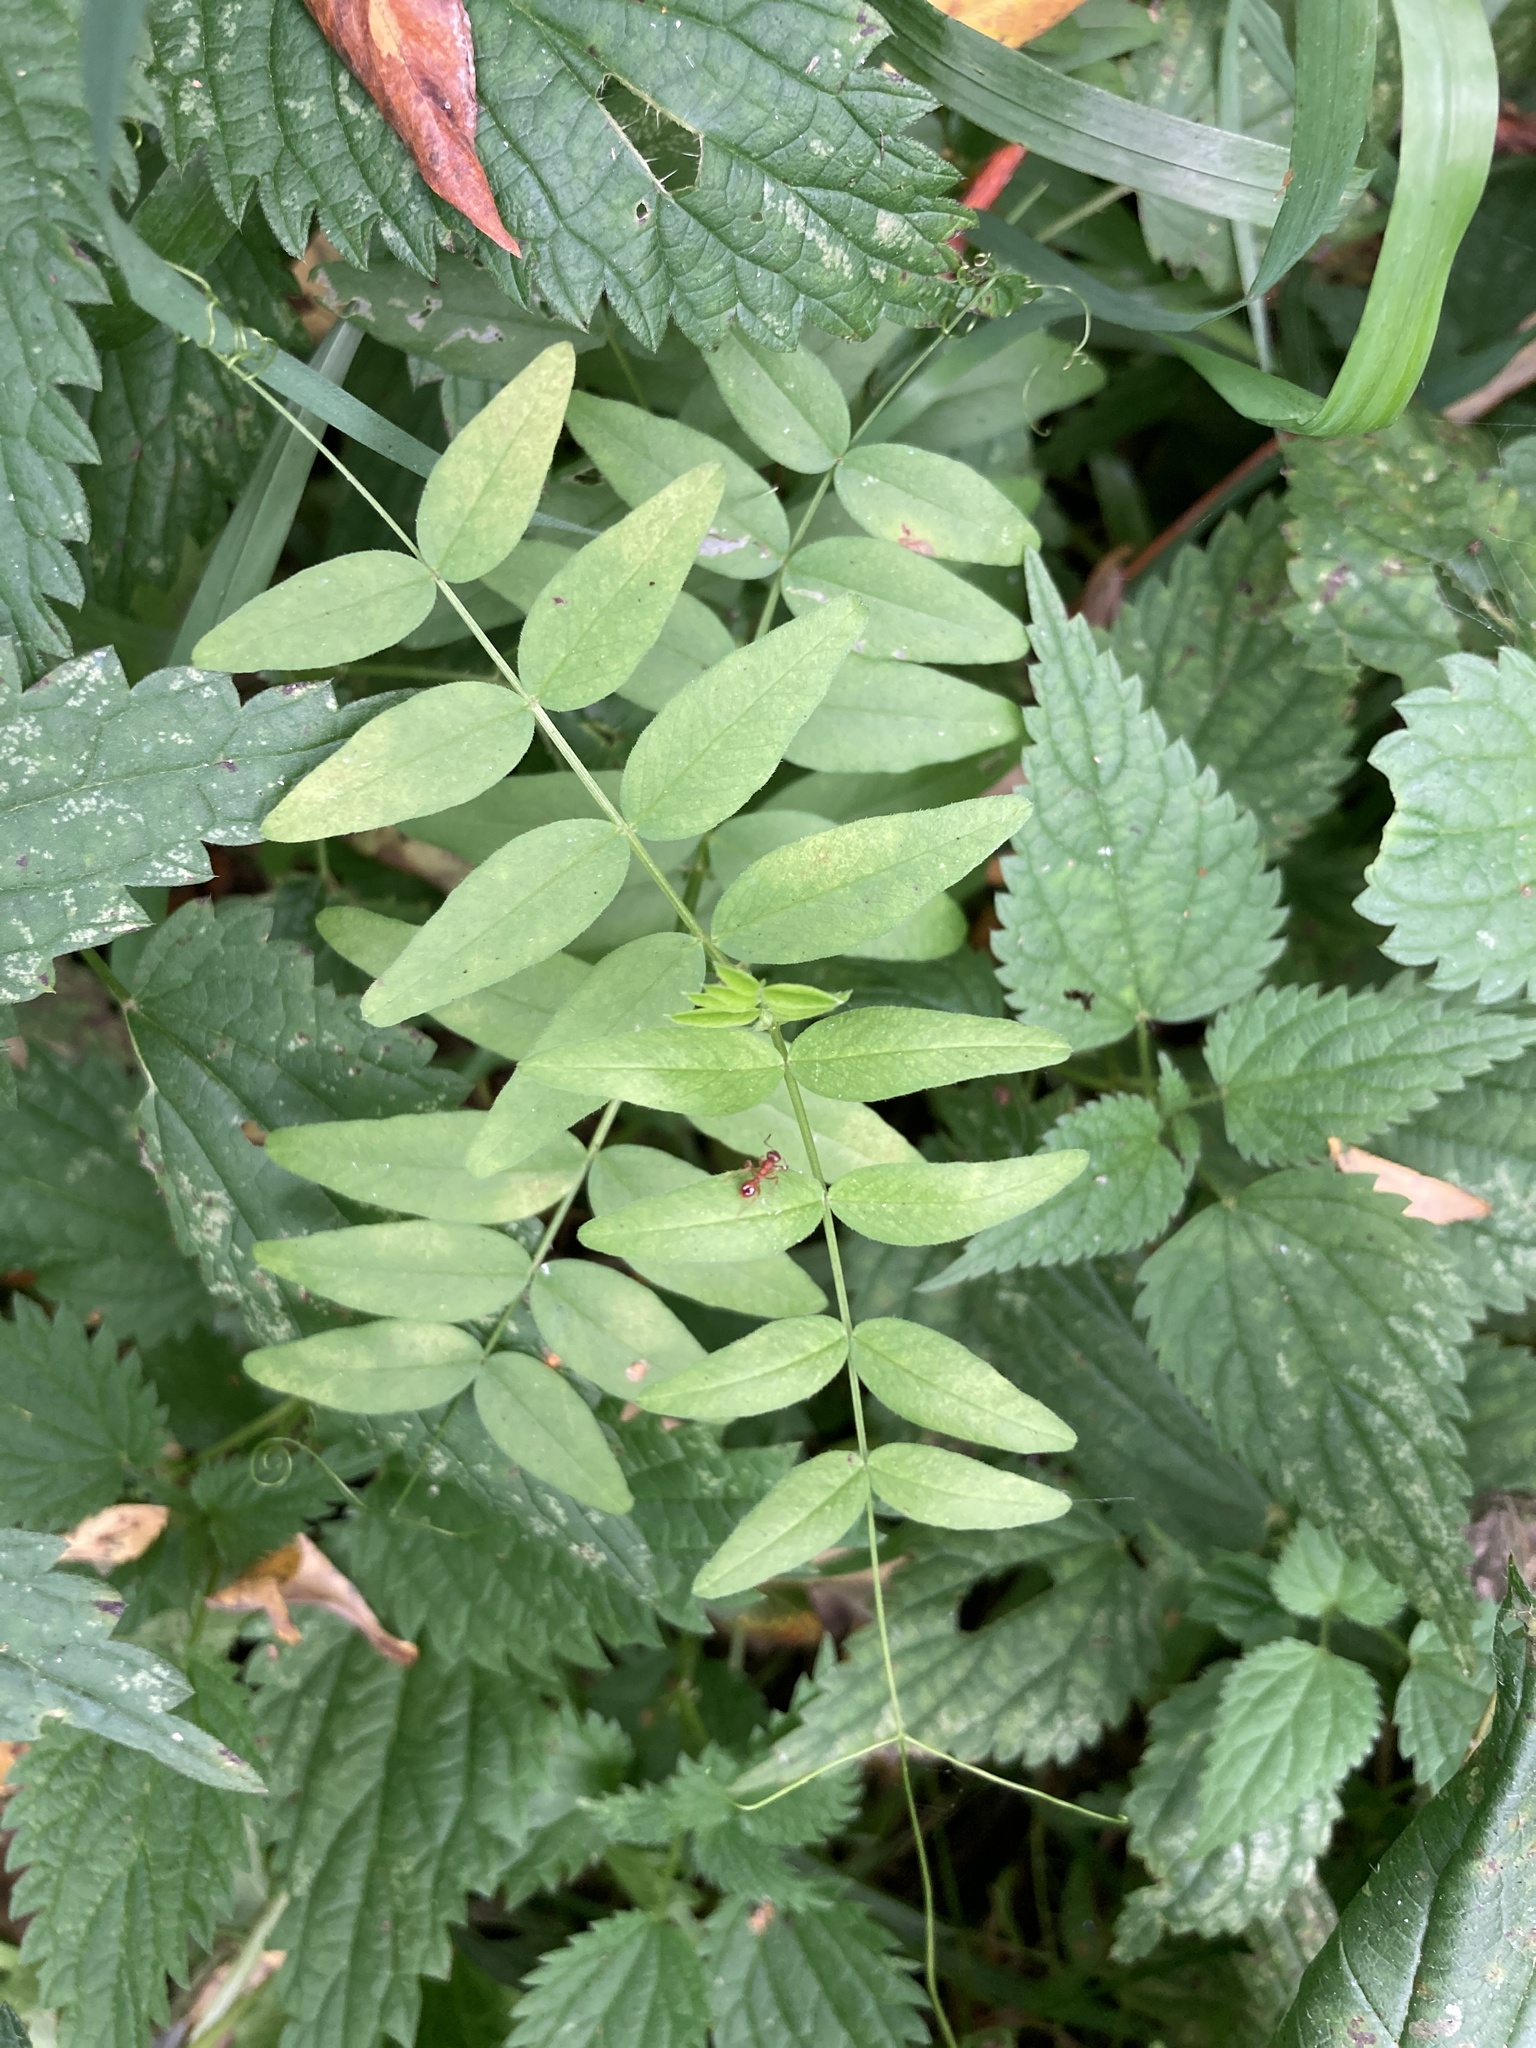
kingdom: Plantae
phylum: Tracheophyta
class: Magnoliopsida
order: Fabales
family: Fabaceae
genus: Vicia
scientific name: Vicia sepium
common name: Bush vetch
